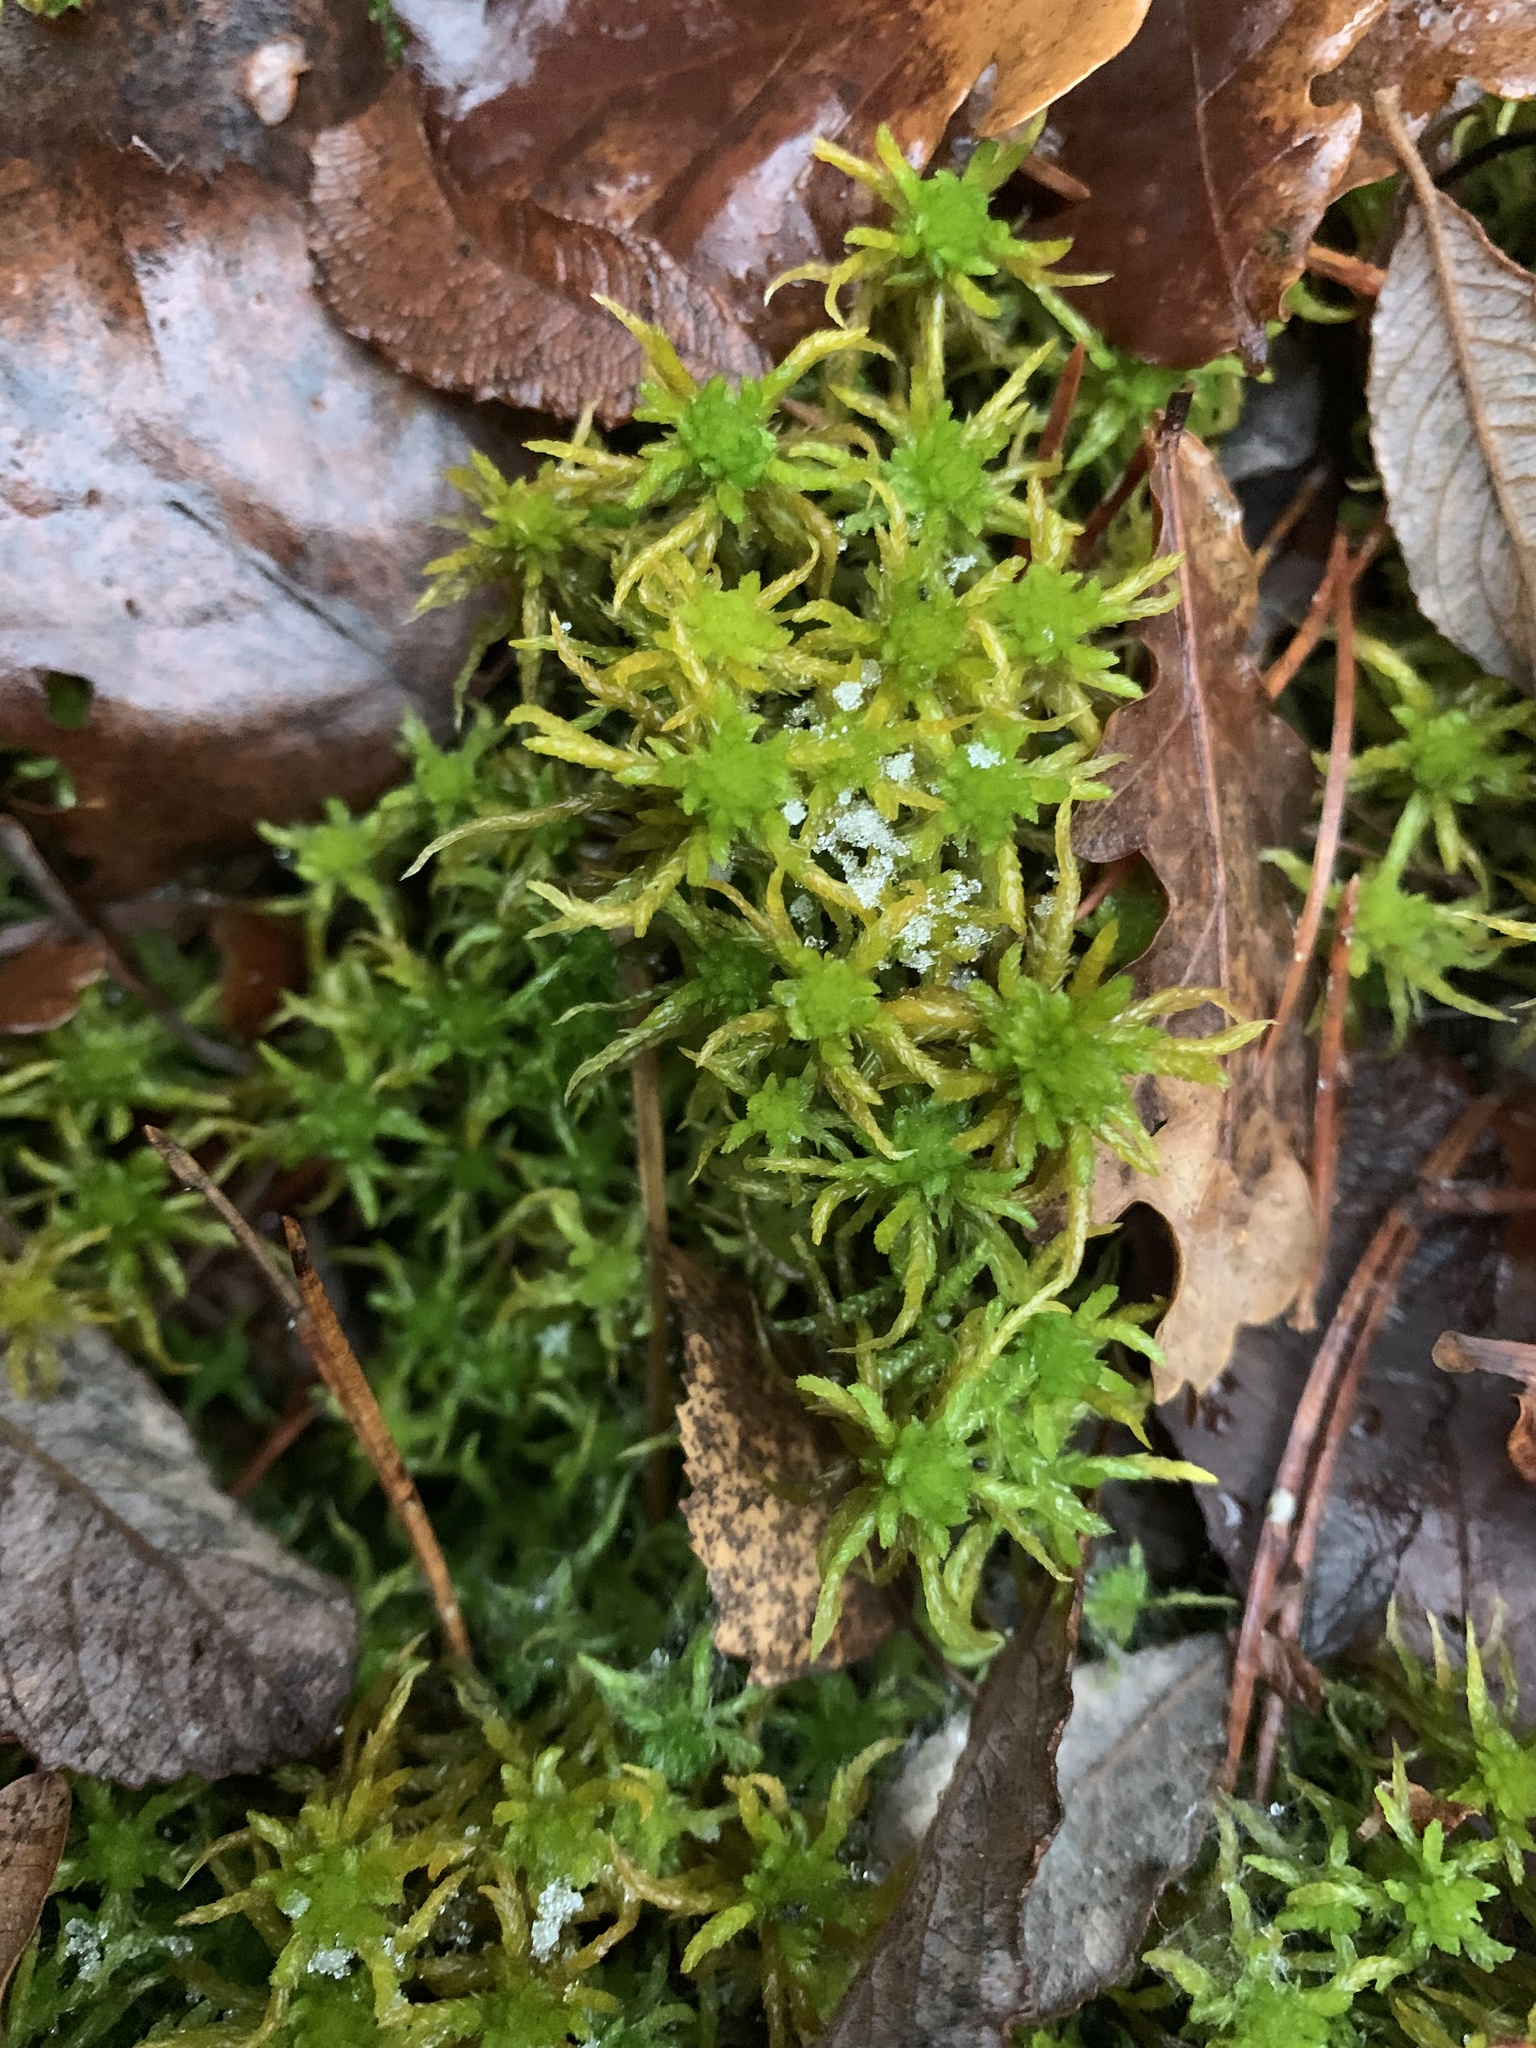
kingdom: Plantae
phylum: Bryophyta
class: Sphagnopsida
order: Sphagnales
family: Sphagnaceae
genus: Sphagnum
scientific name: Sphagnum inundatum
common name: Lesser cow-horn bog-moss
